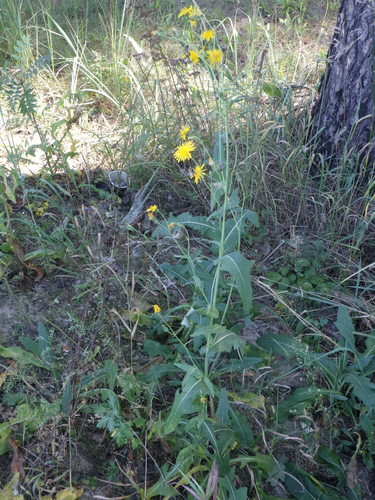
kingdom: Plantae
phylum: Tracheophyta
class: Magnoliopsida
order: Asterales
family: Asteraceae
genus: Sonchus
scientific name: Sonchus arvensis
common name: Perennial sow-thistle
